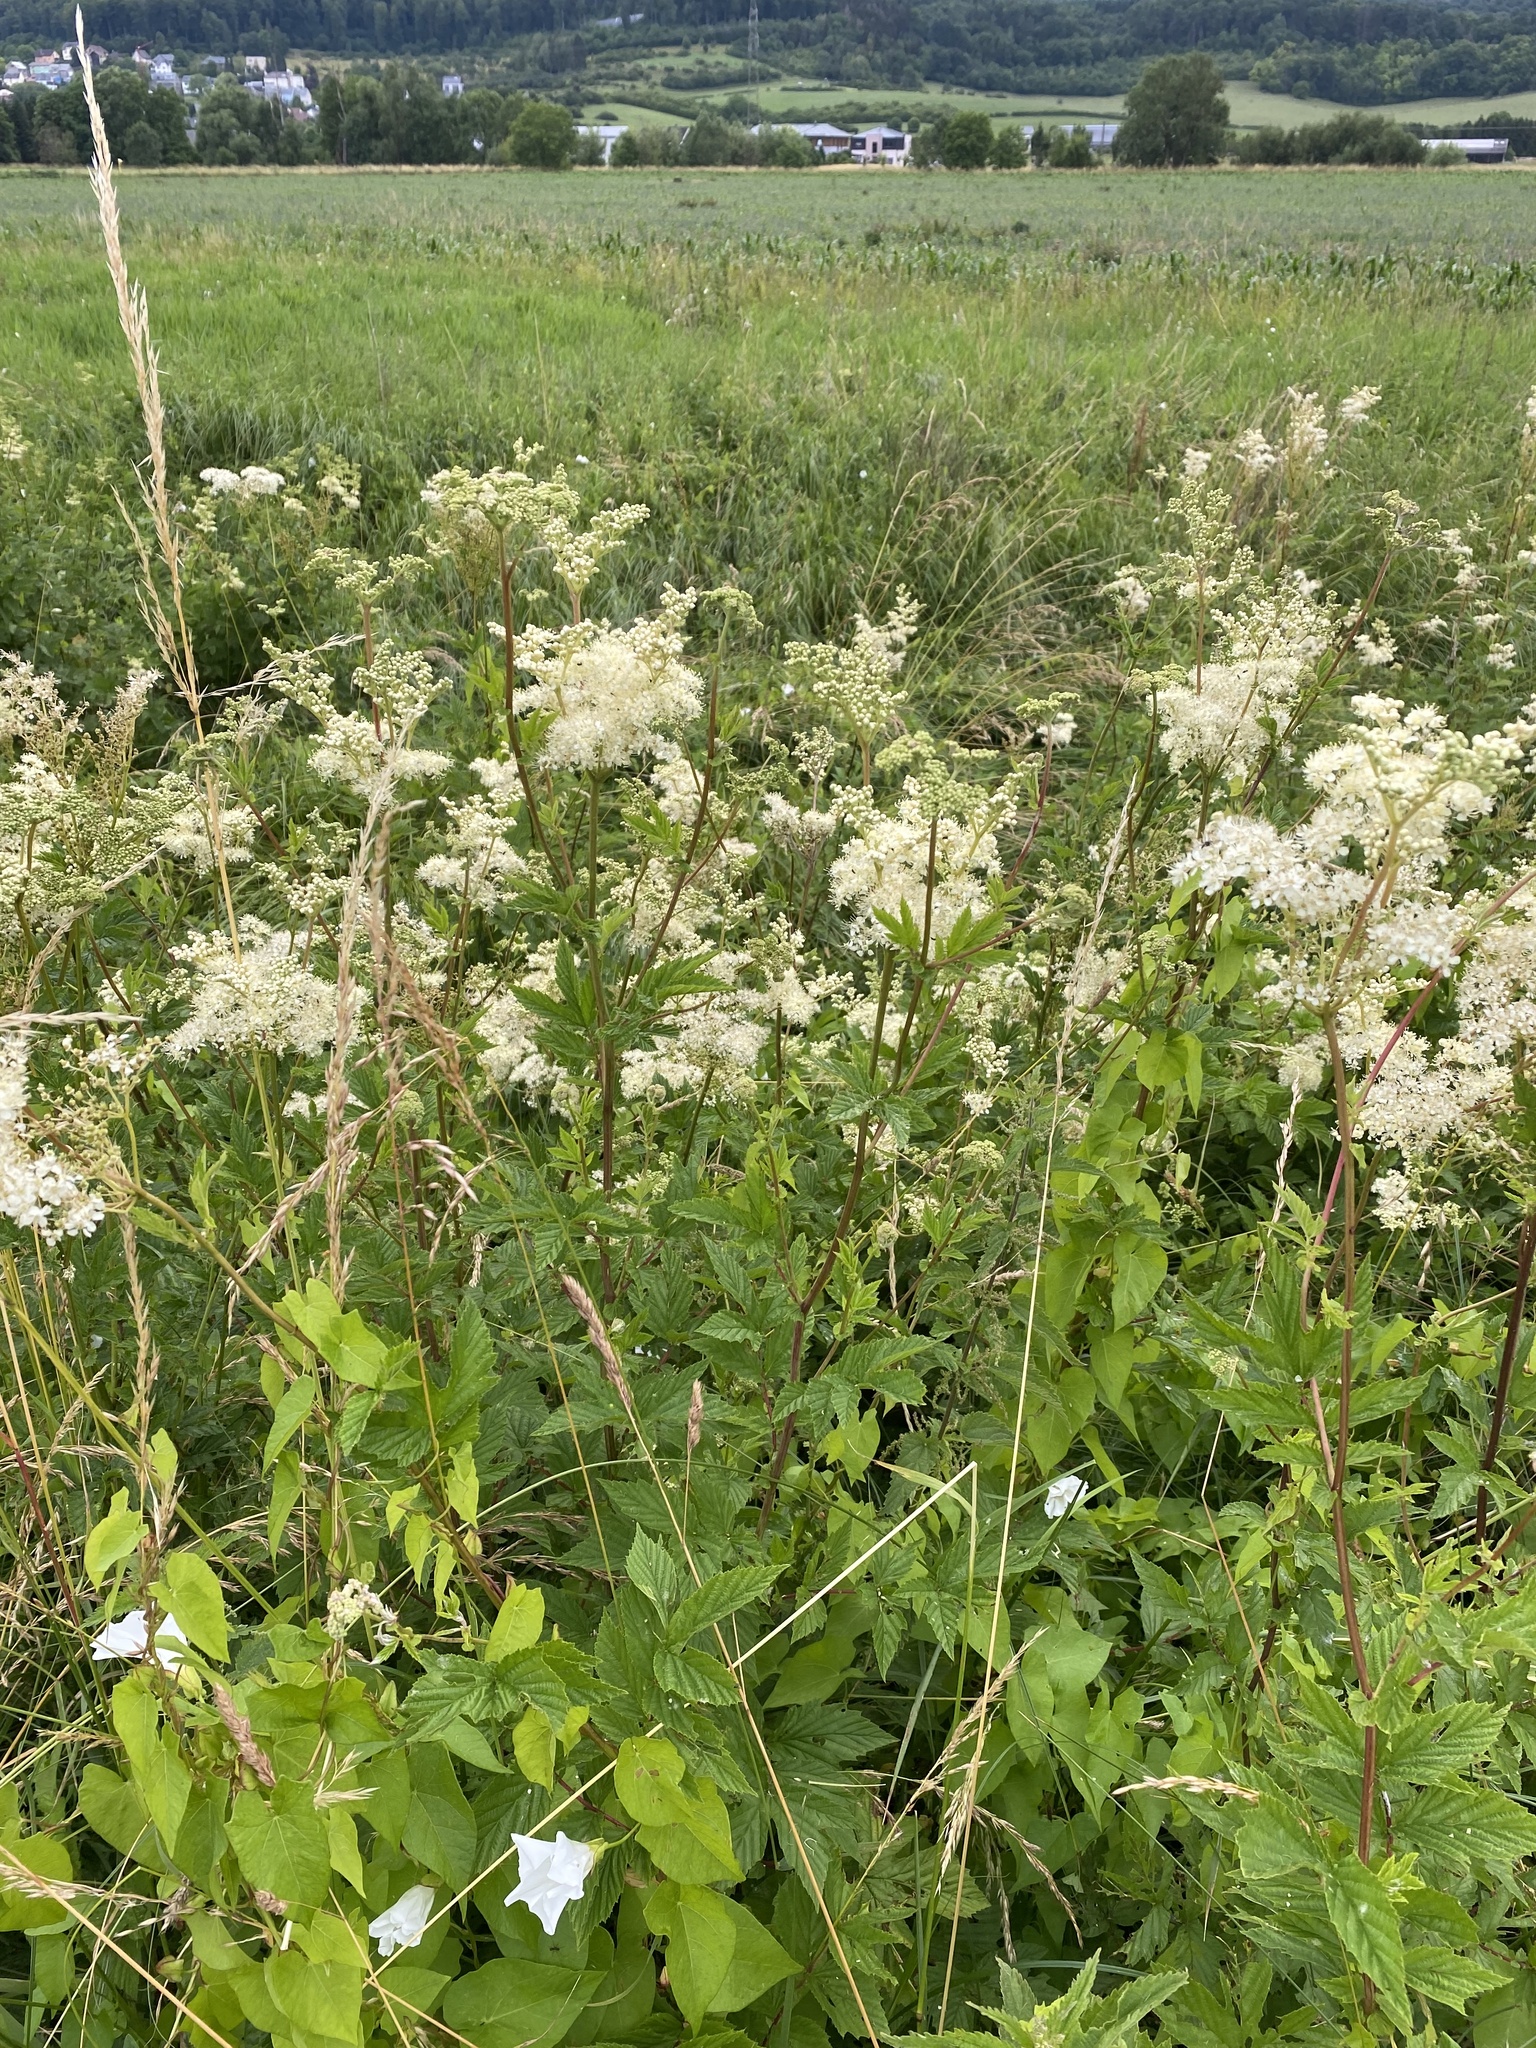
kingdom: Plantae
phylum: Tracheophyta
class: Magnoliopsida
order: Rosales
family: Rosaceae
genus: Filipendula
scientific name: Filipendula ulmaria
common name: Meadowsweet
